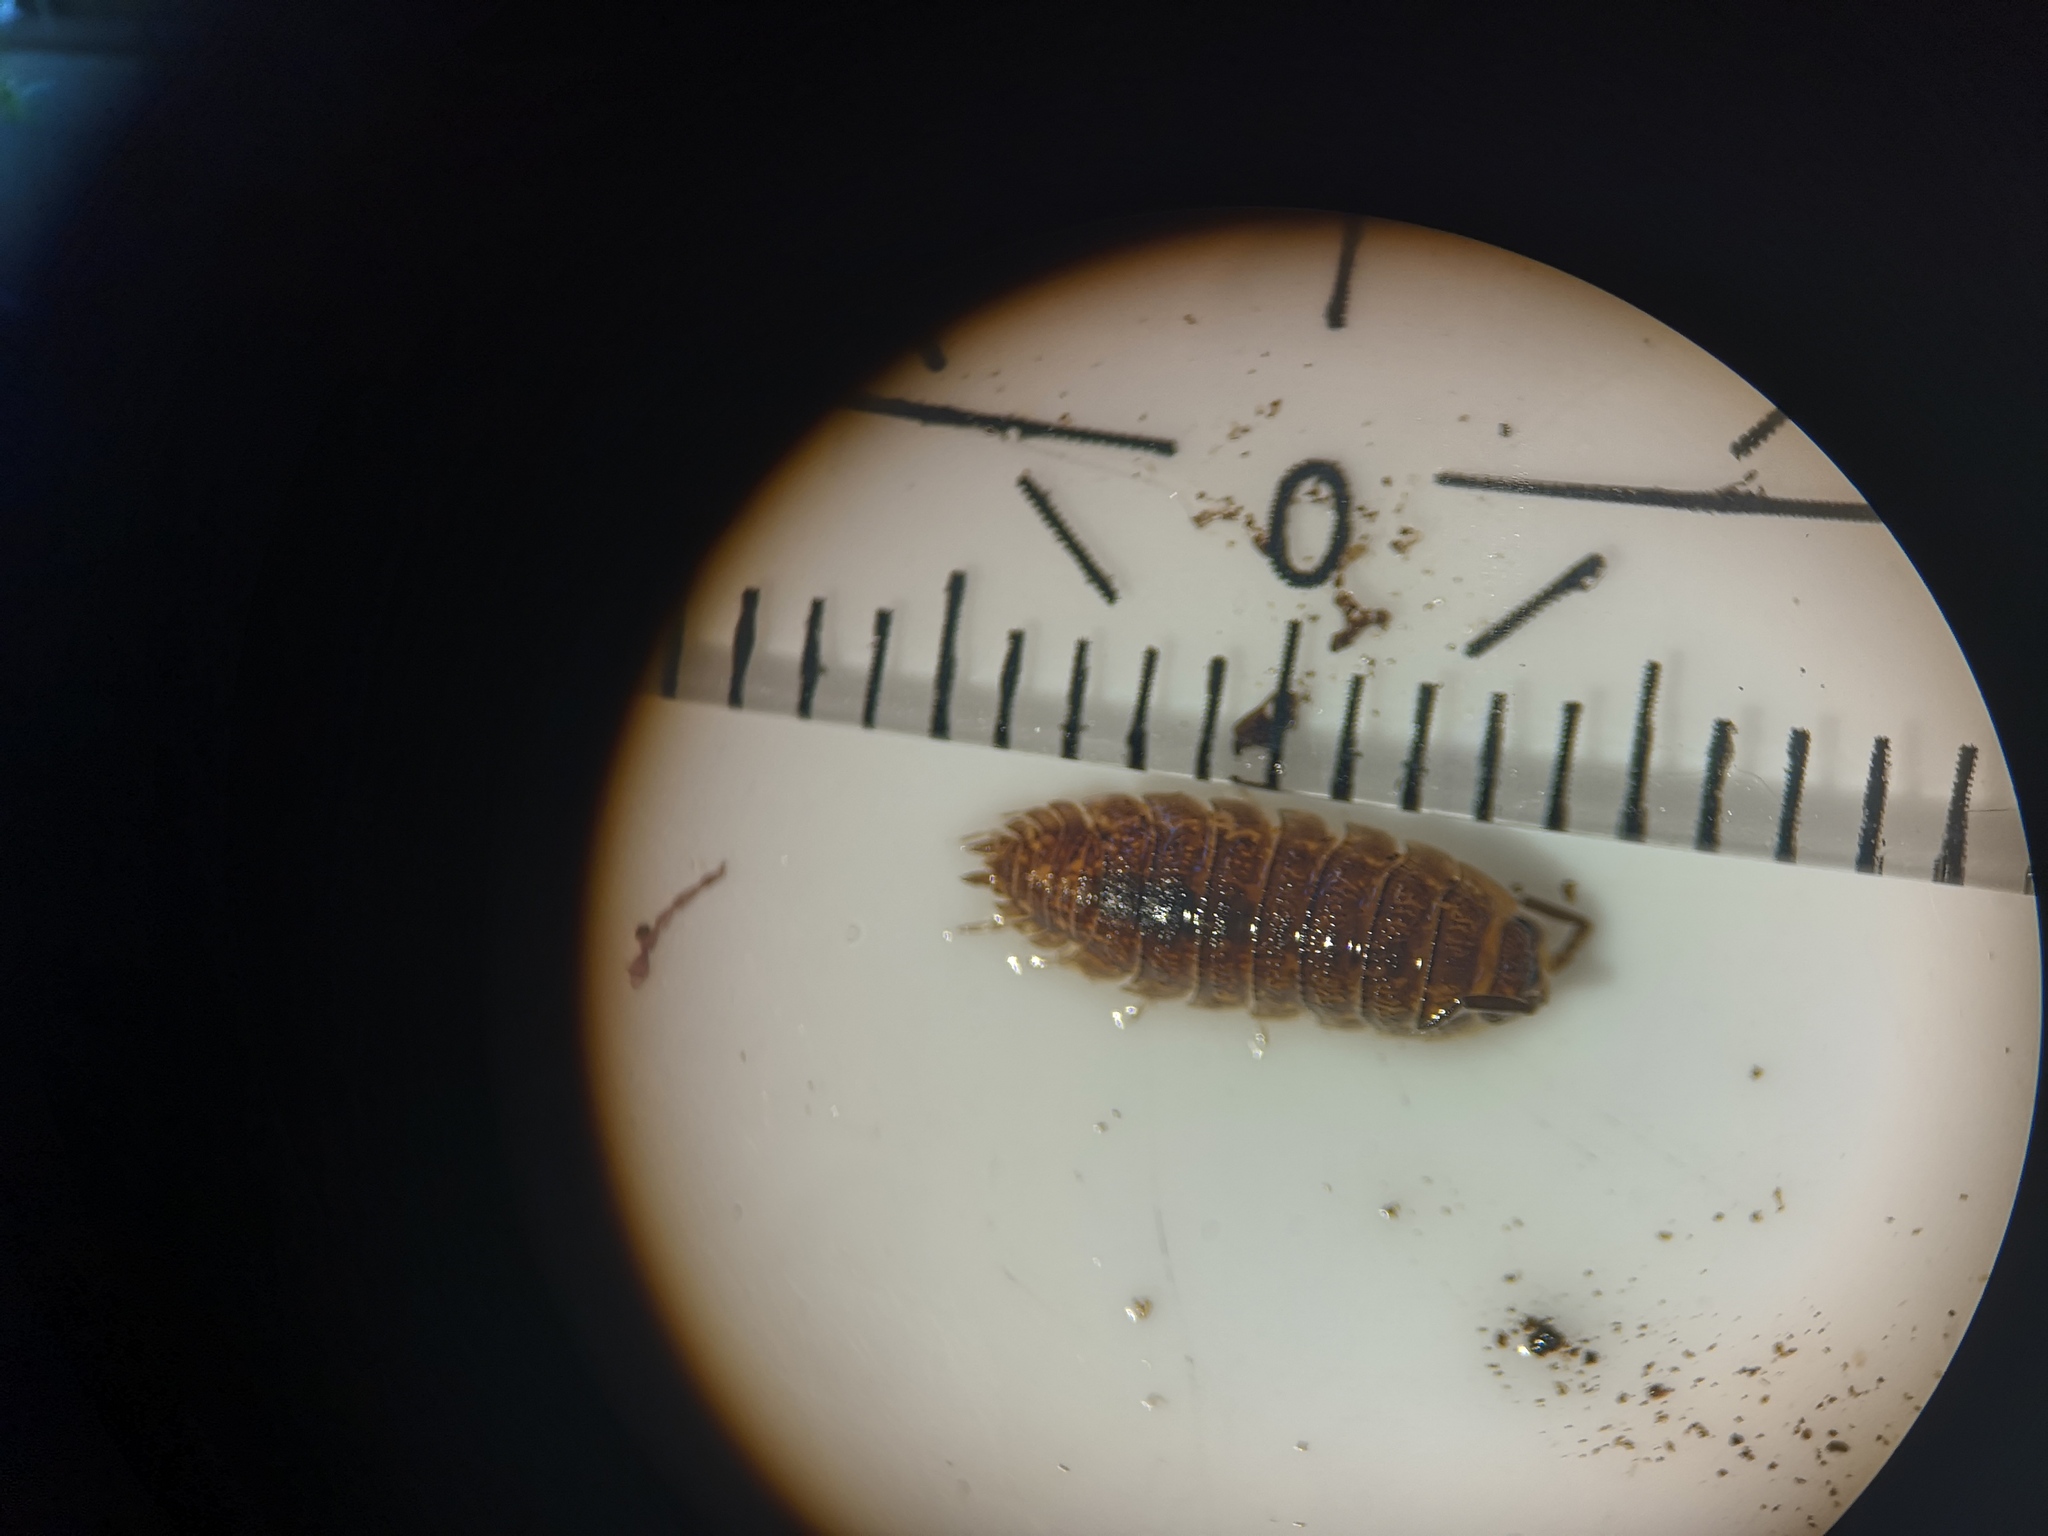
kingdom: Animalia
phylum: Arthropoda
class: Malacostraca
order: Isopoda
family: Porcellionidae
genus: Porcellio
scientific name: Porcellio scaber
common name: Common rough woodlouse
